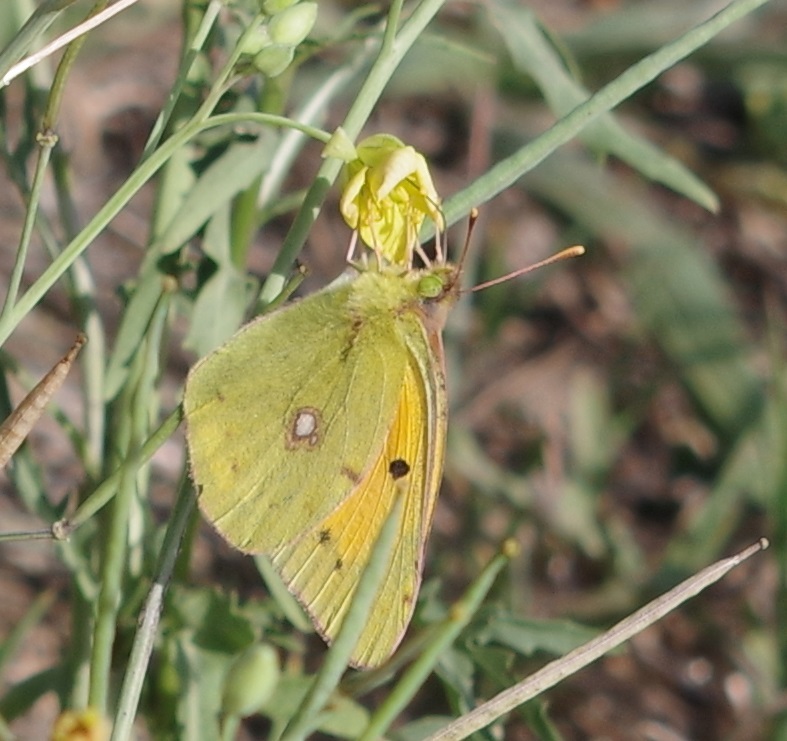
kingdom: Animalia
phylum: Arthropoda
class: Insecta
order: Lepidoptera
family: Pieridae
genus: Colias
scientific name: Colias croceus
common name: Clouded yellow
